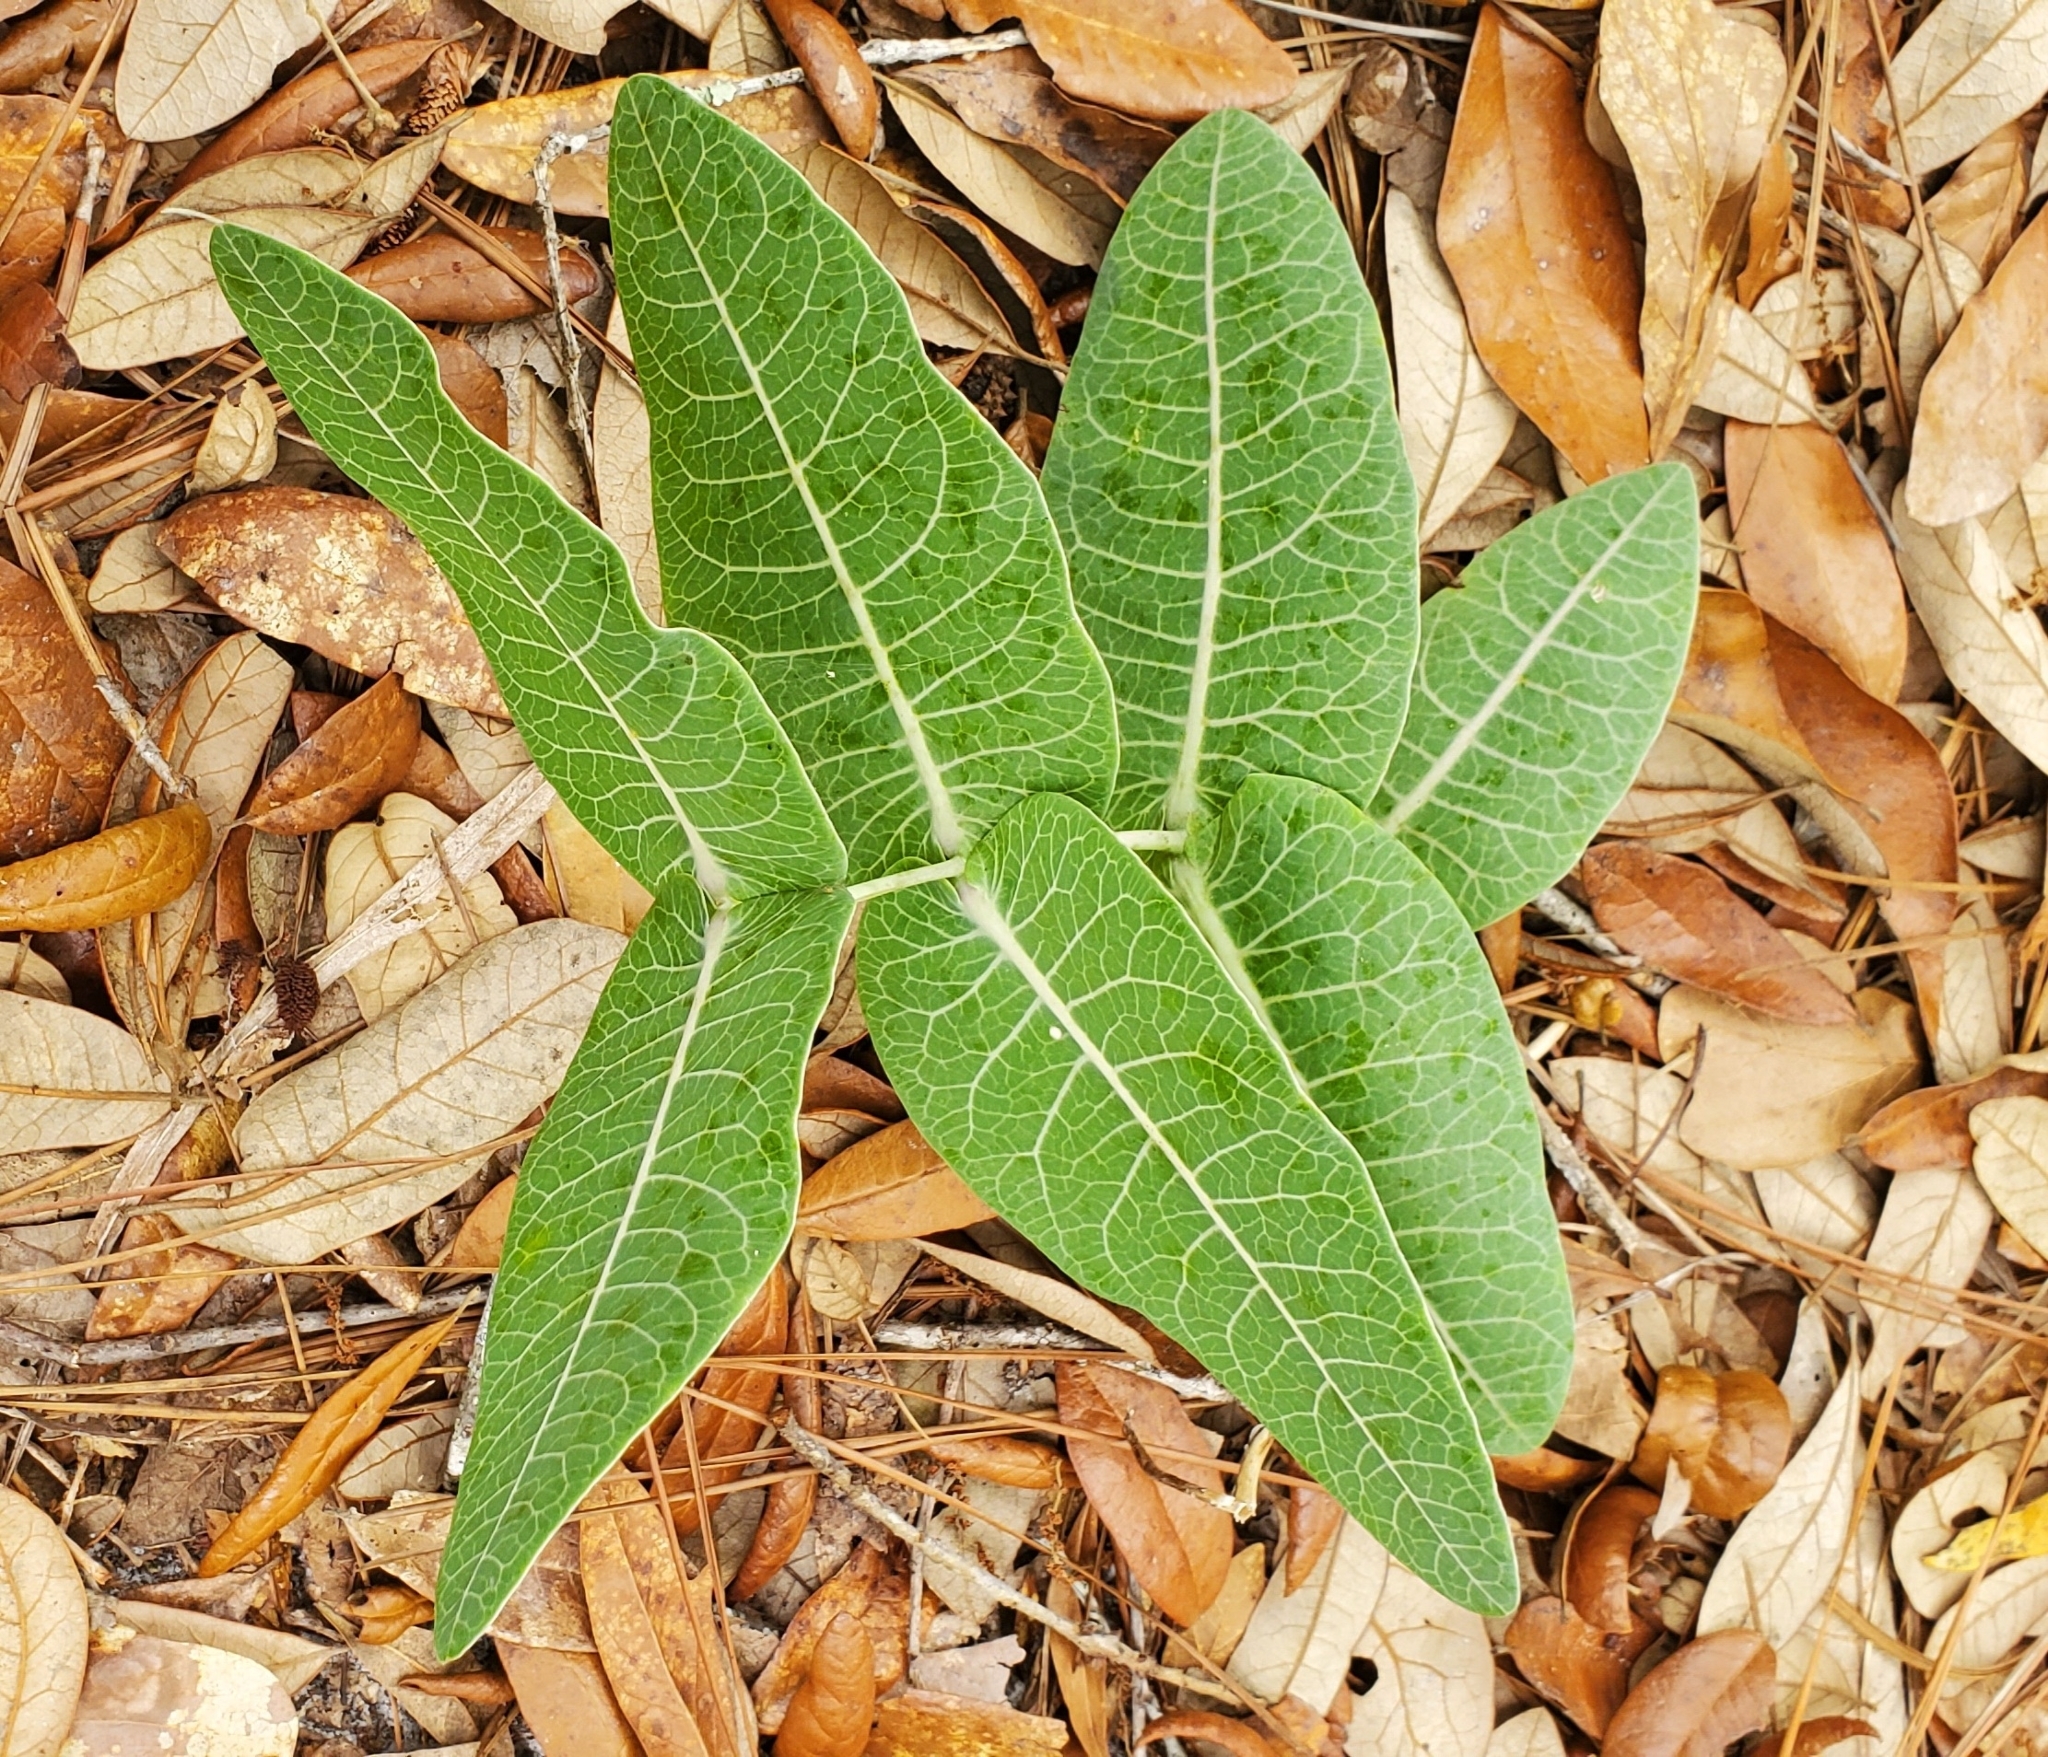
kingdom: Plantae
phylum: Tracheophyta
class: Magnoliopsida
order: Gentianales
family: Apocynaceae
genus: Asclepias
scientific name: Asclepias humistrata
